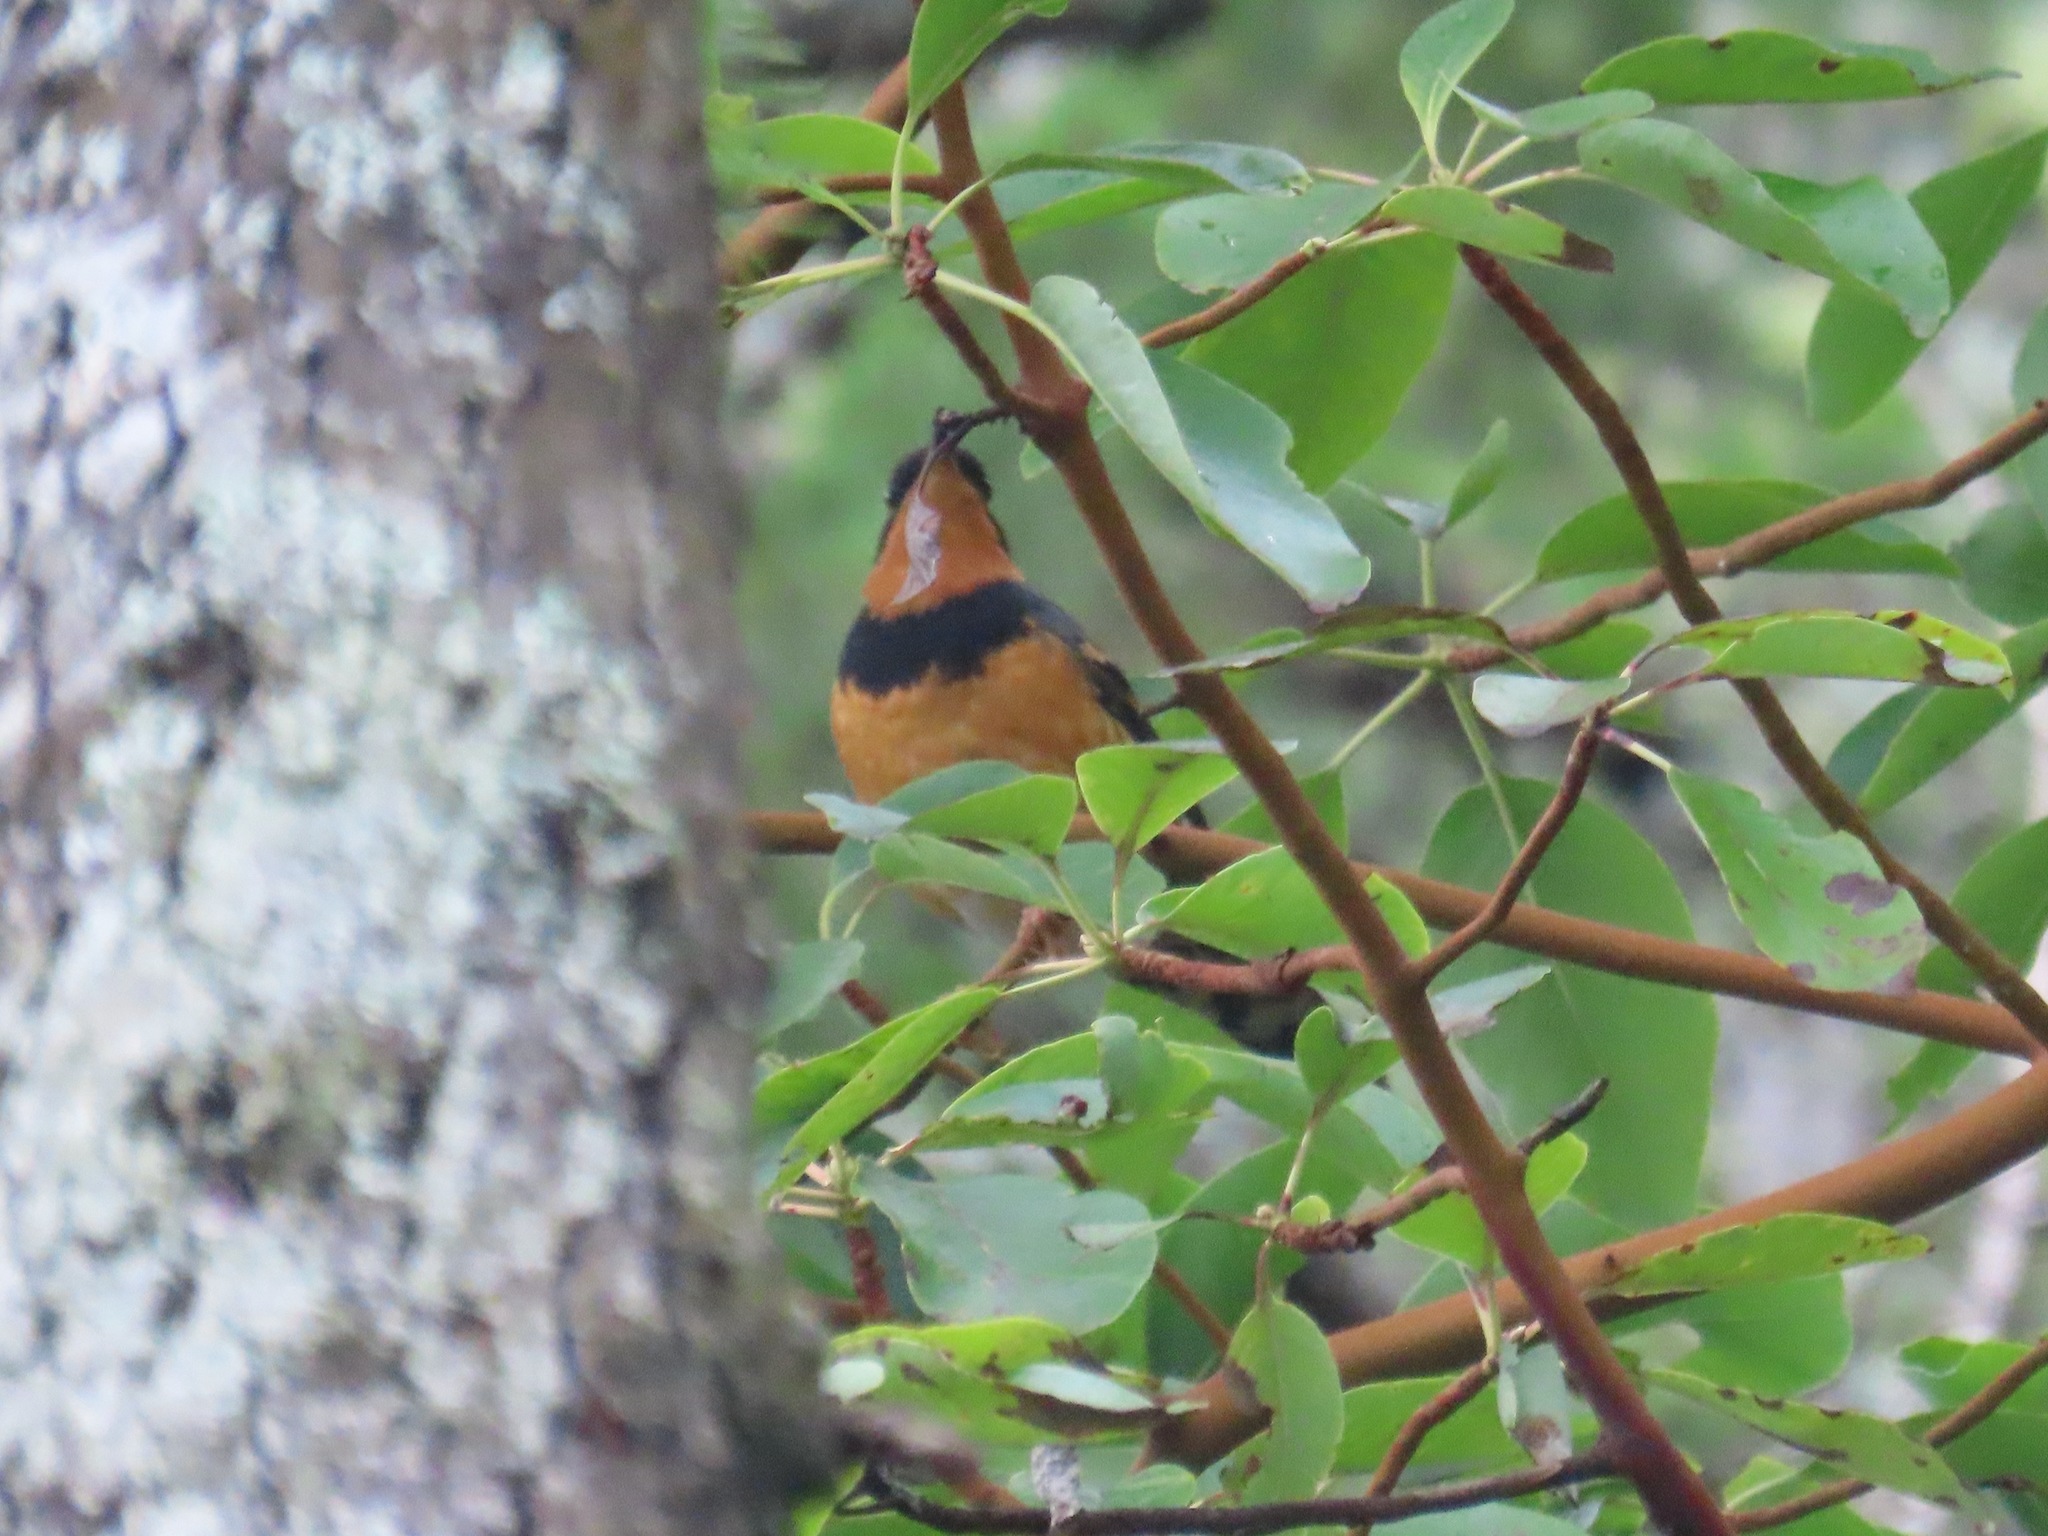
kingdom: Animalia
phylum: Chordata
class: Aves
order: Passeriformes
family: Turdidae
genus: Ixoreus
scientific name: Ixoreus naevius
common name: Varied thrush
